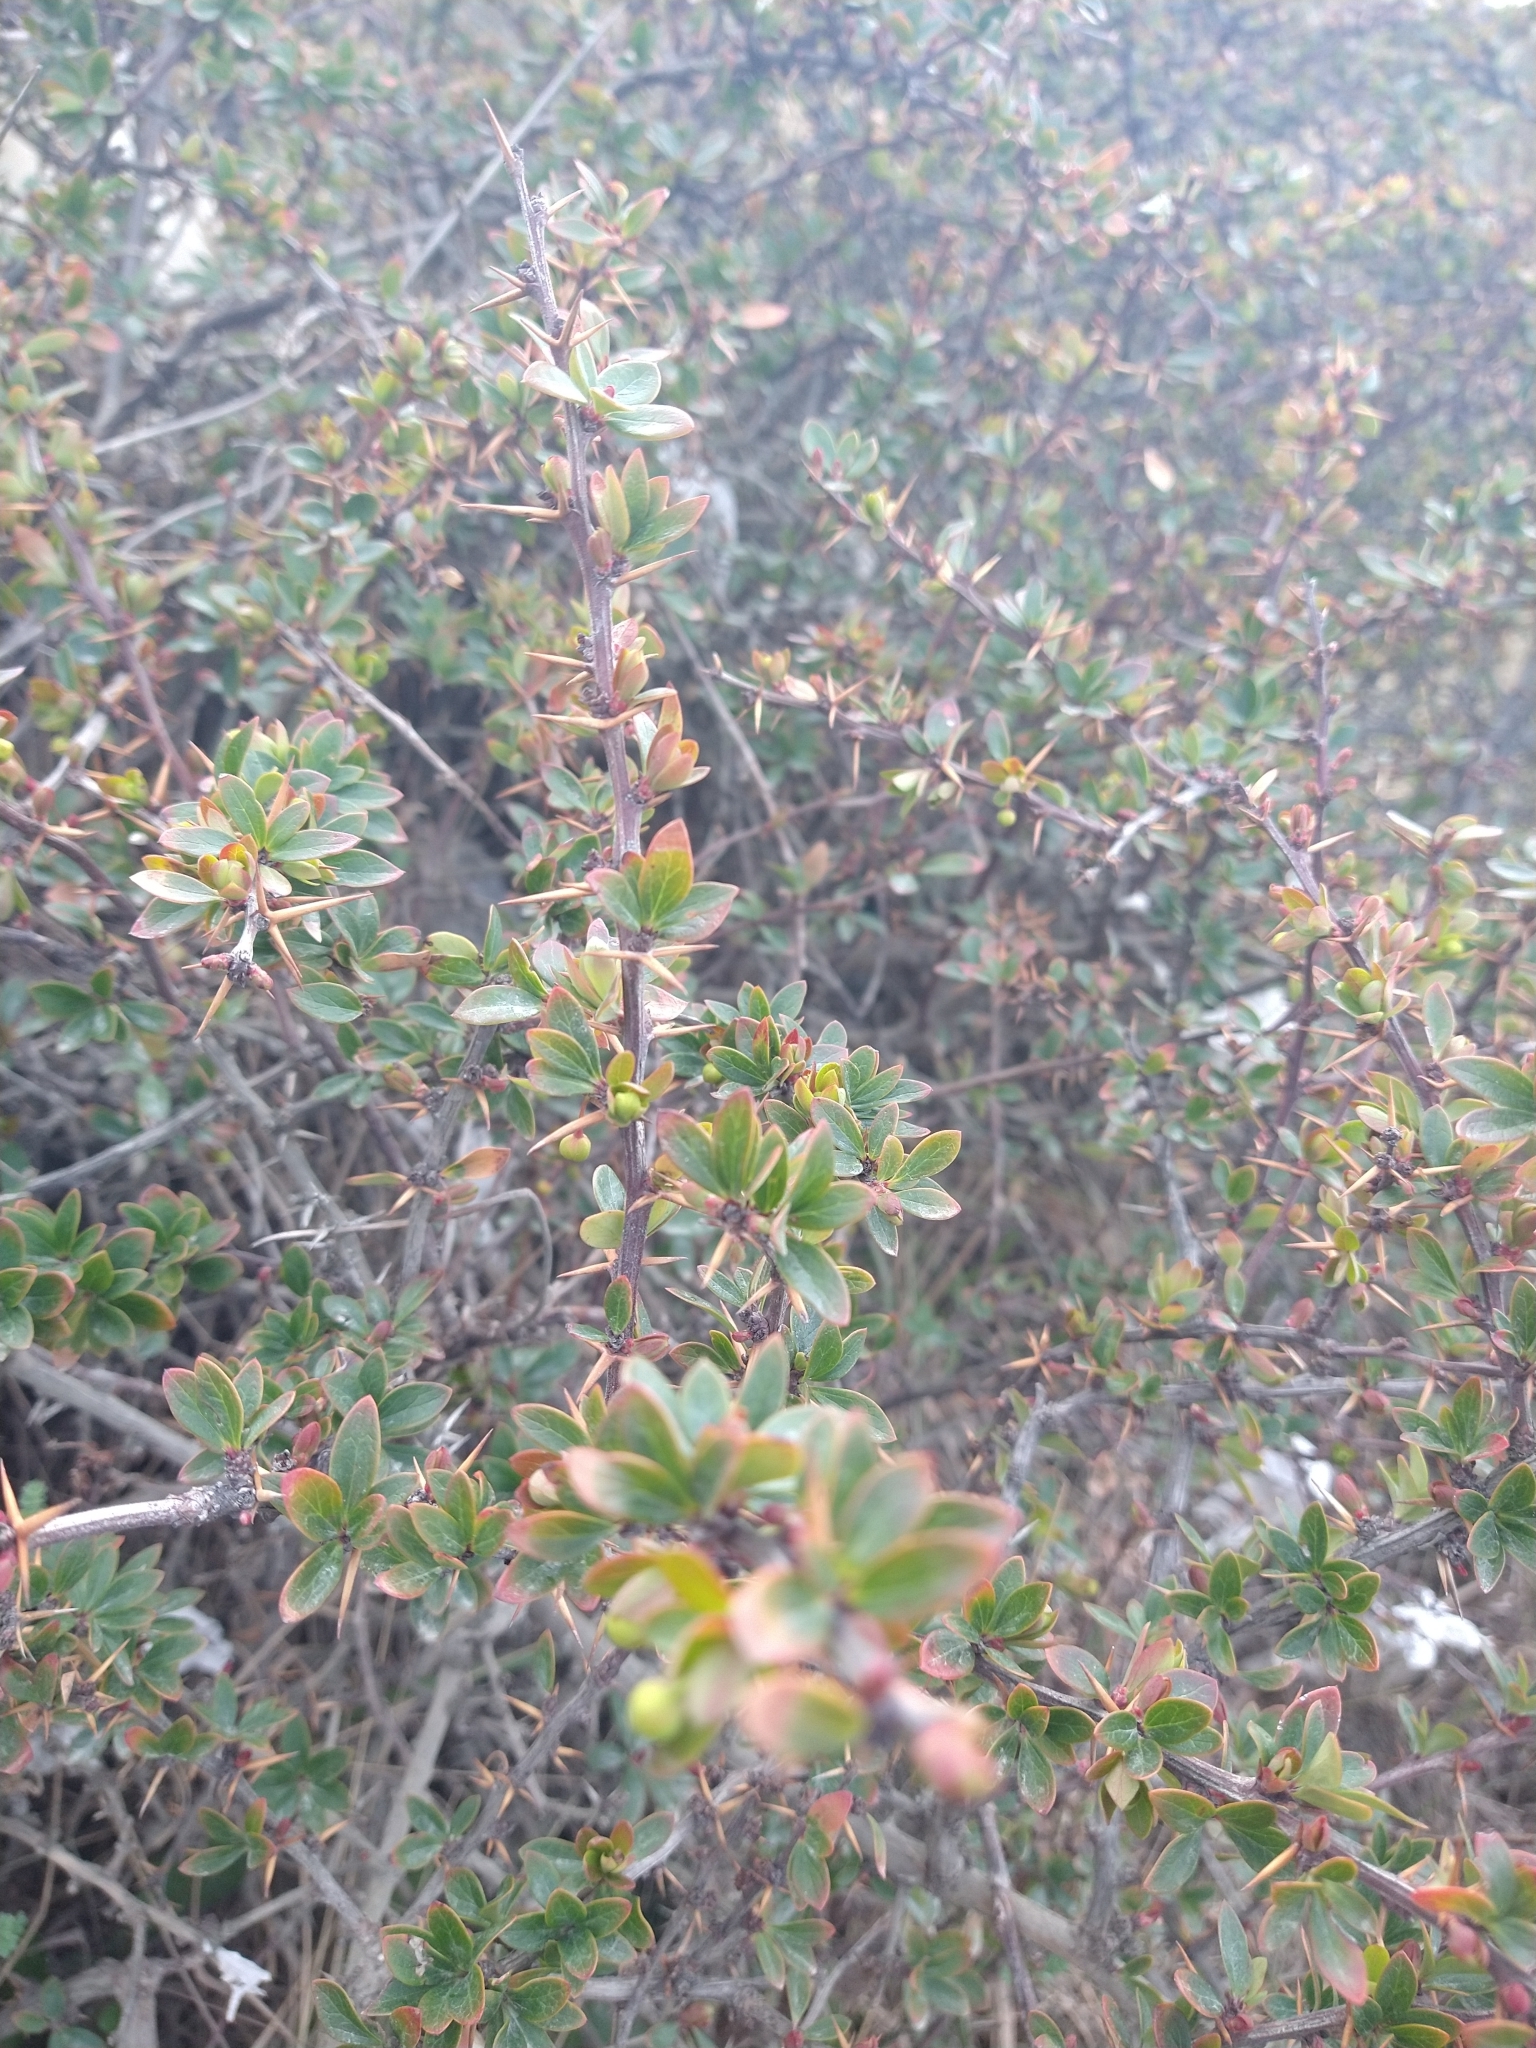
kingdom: Plantae
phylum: Tracheophyta
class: Magnoliopsida
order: Ranunculales
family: Berberidaceae
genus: Berberis
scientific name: Berberis microphylla
